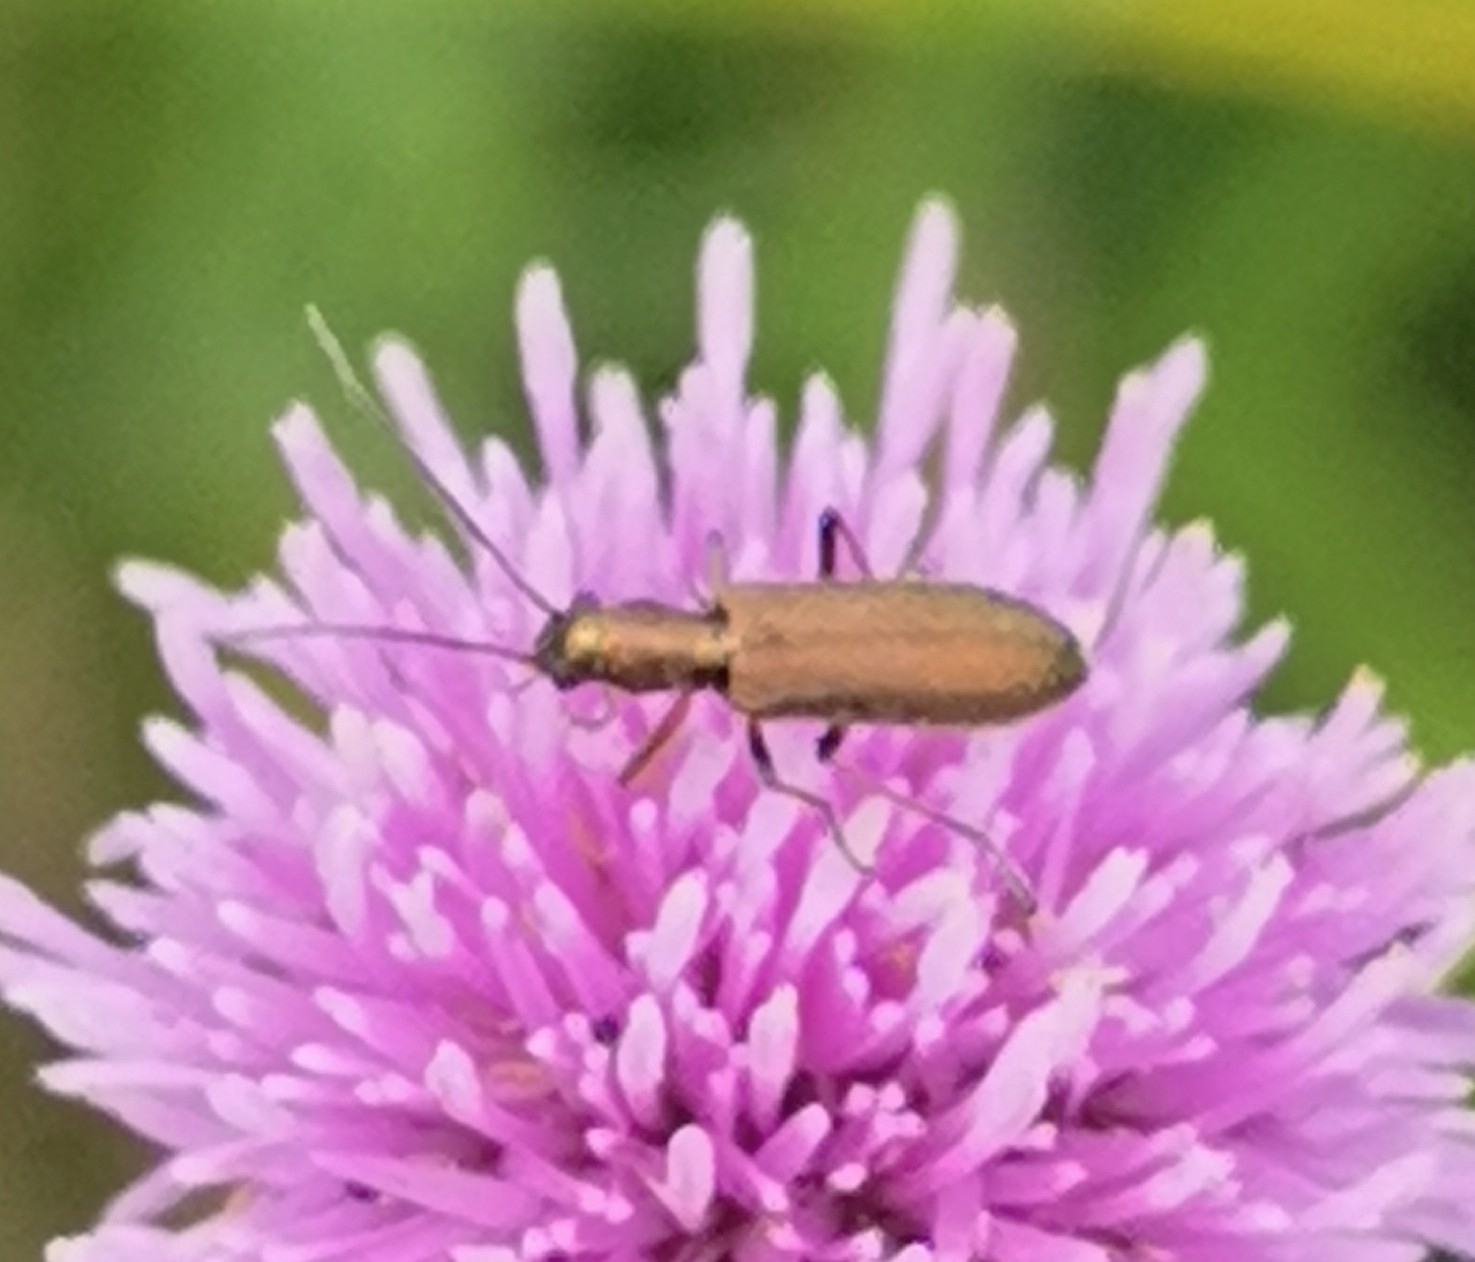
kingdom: Animalia
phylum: Arthropoda
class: Insecta
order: Coleoptera
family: Oedemeridae
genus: Chrysanthia
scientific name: Chrysanthia geniculata
